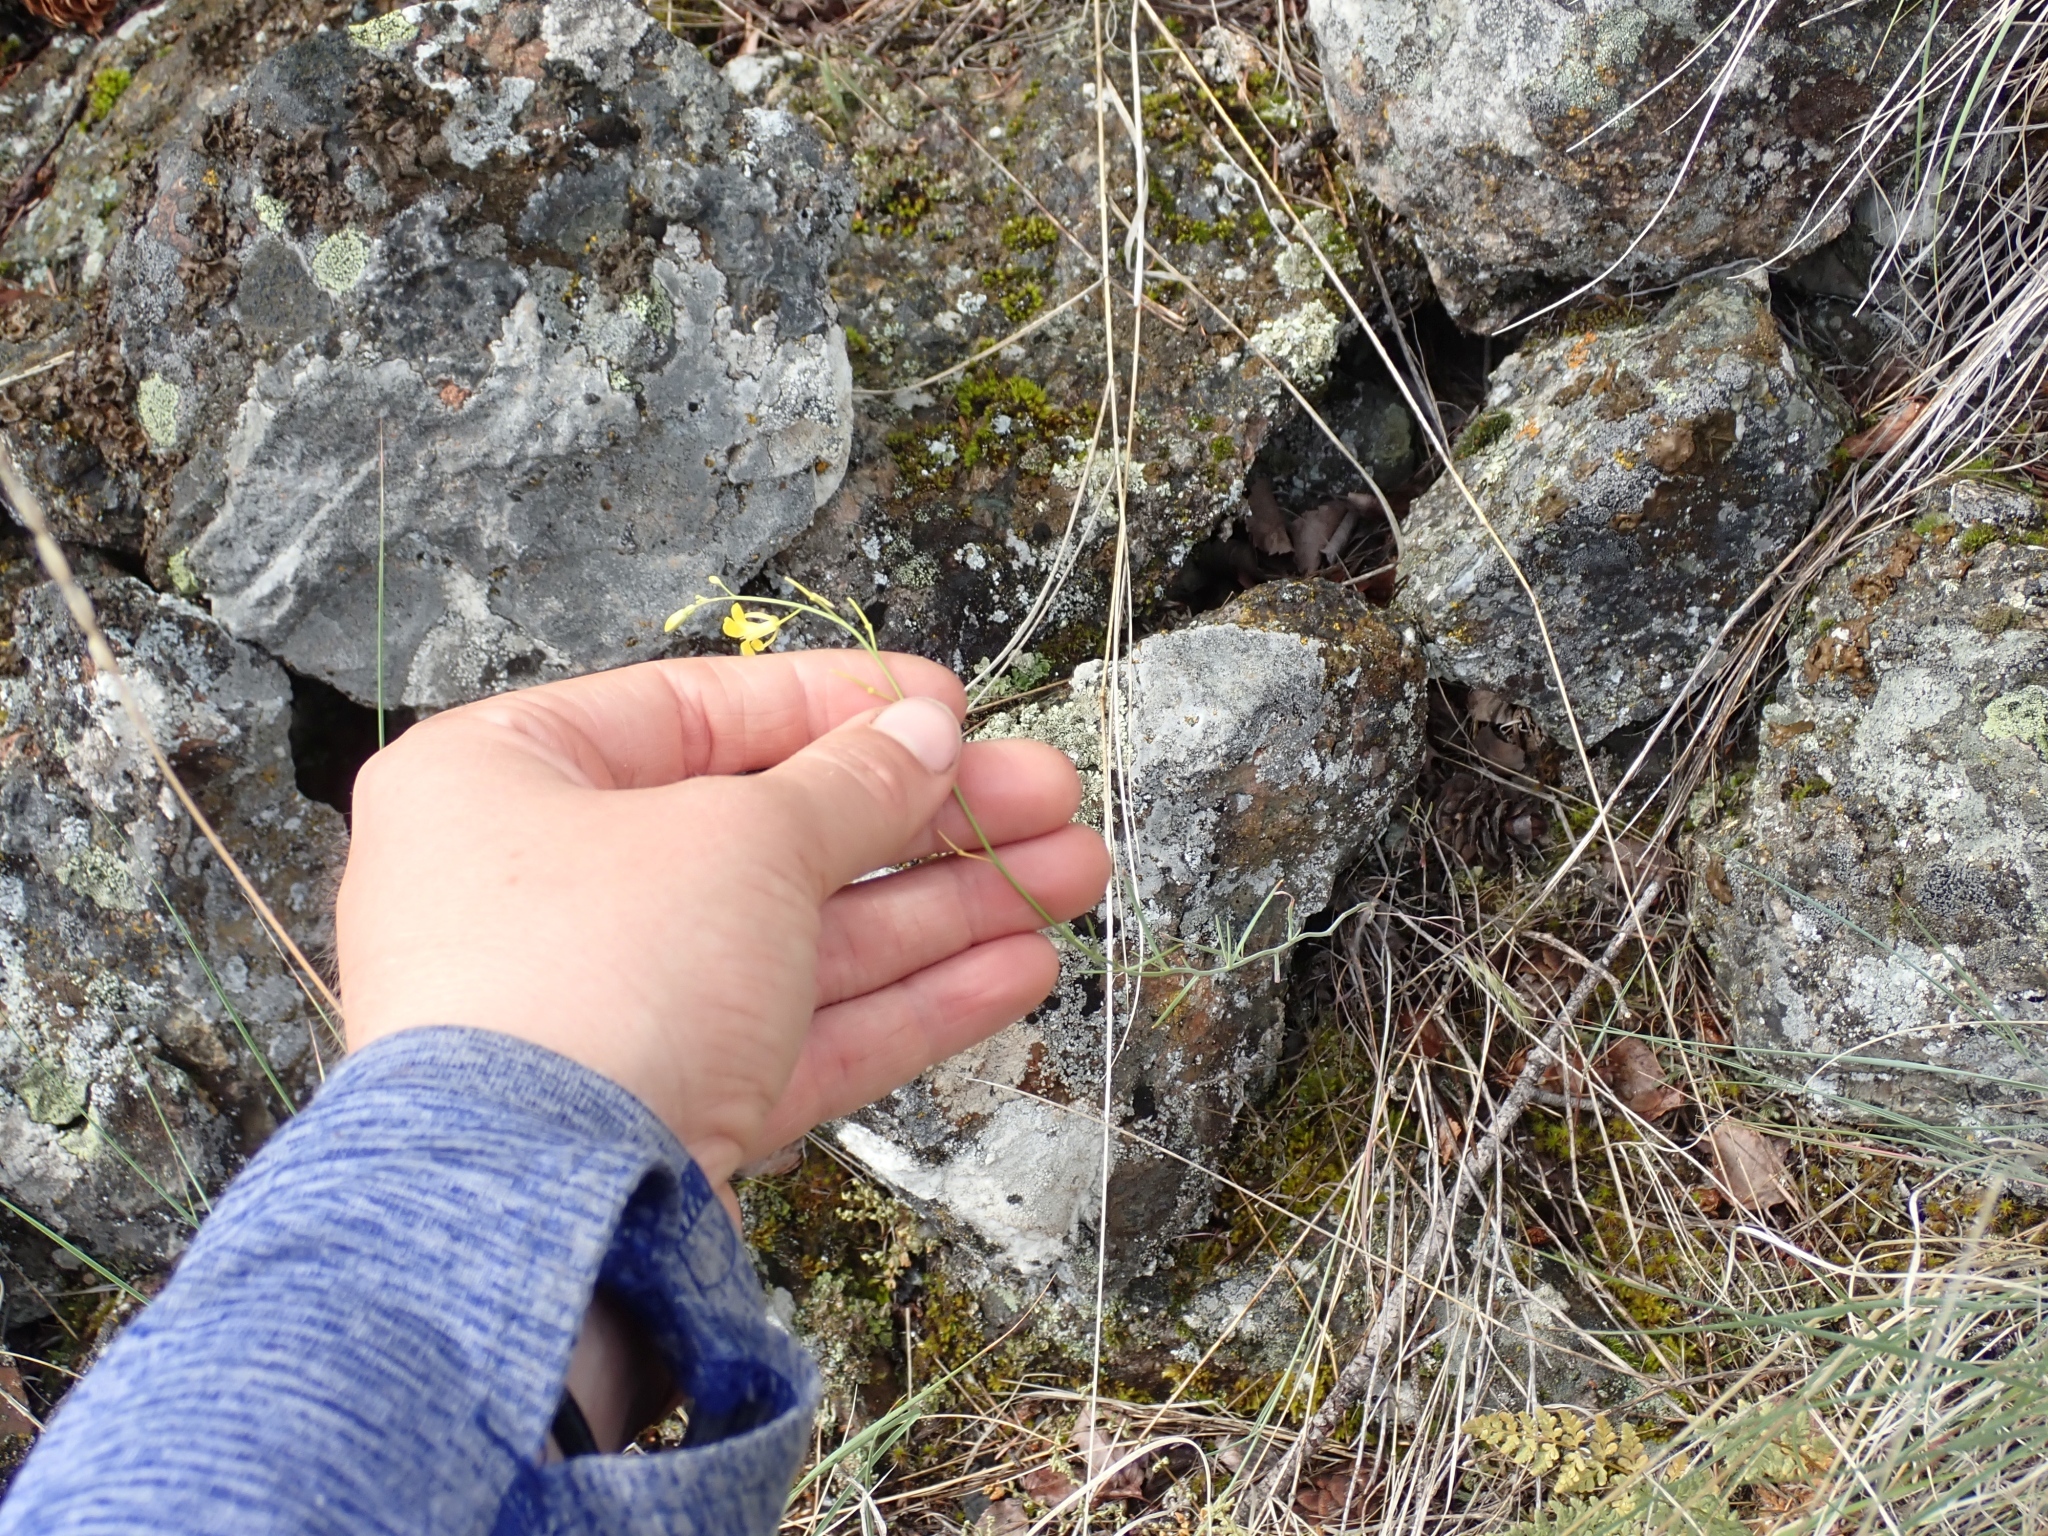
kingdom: Plantae
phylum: Tracheophyta
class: Magnoliopsida
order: Brassicales
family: Brassicaceae
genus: Sisymbrium
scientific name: Sisymbrium linifolium
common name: Salmon river plains mustard
